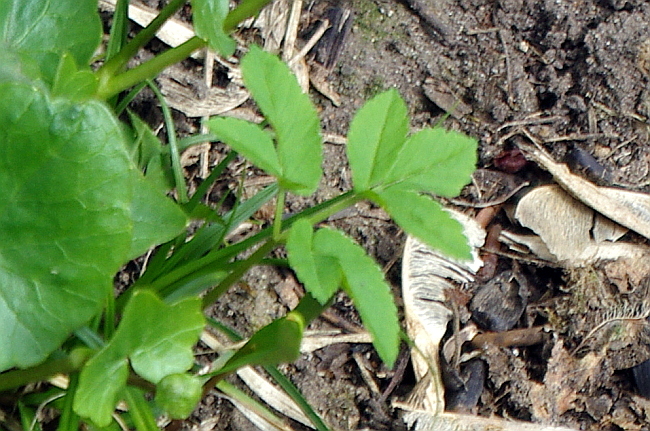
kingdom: Plantae
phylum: Tracheophyta
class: Magnoliopsida
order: Apiales
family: Apiaceae
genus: Aegopodium
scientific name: Aegopodium podagraria
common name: Ground-elder
